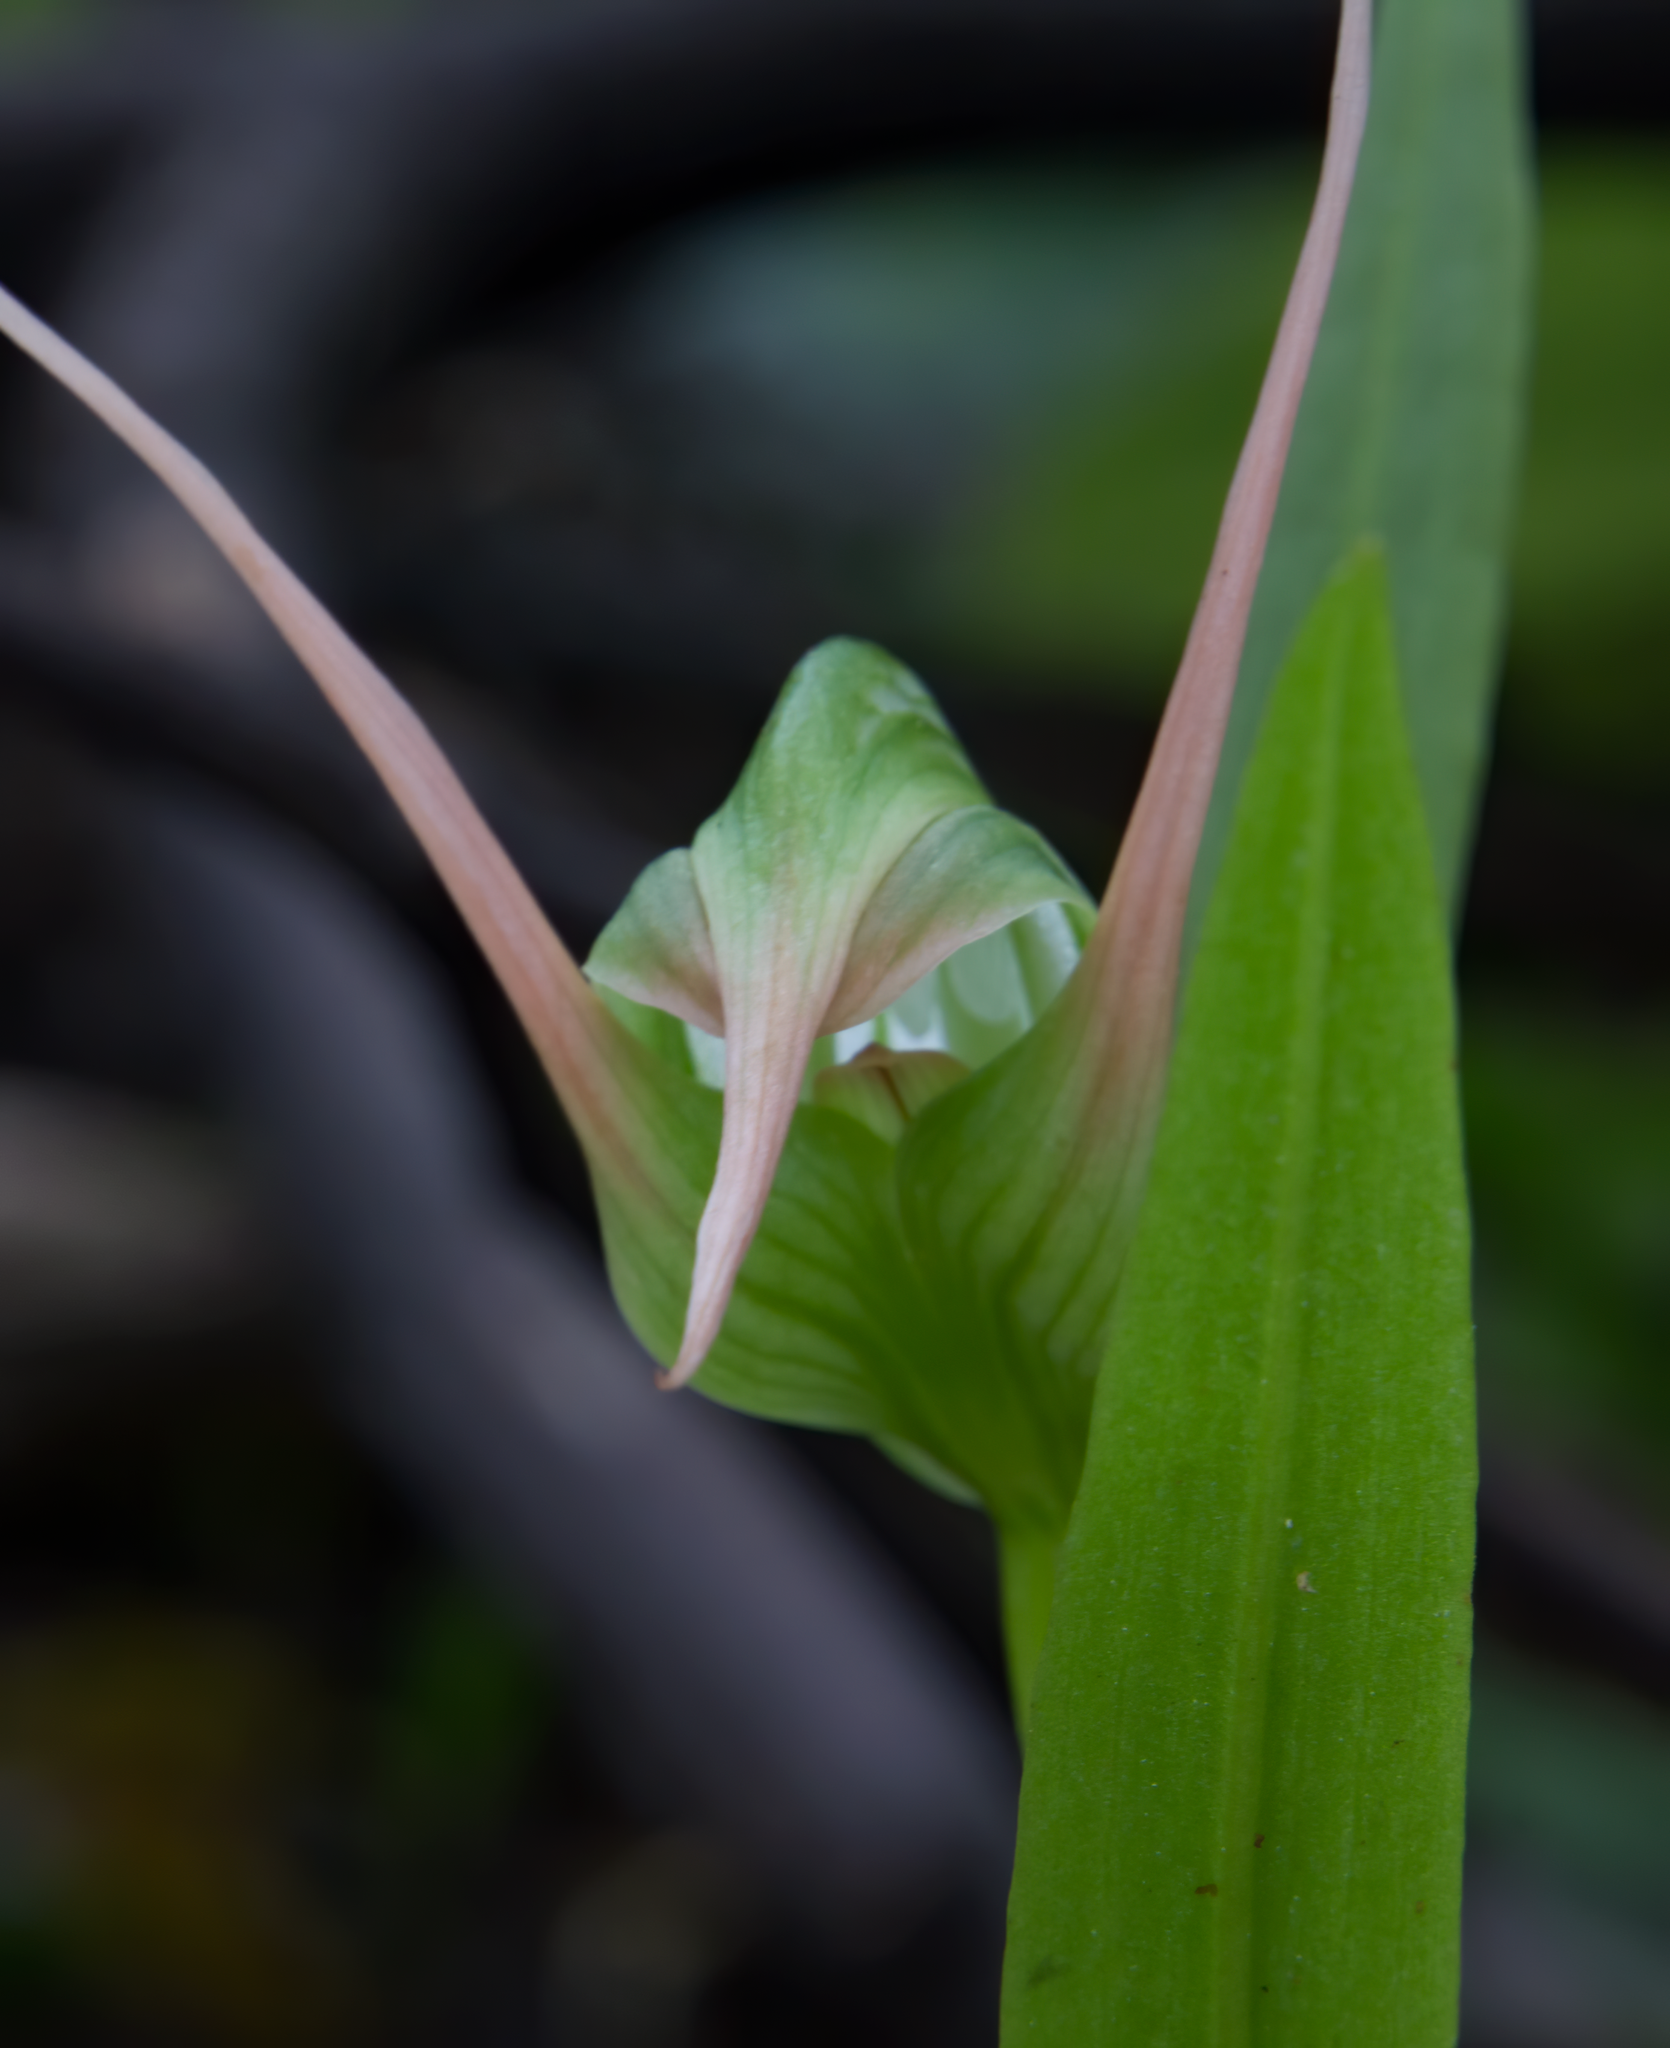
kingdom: Plantae
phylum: Tracheophyta
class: Liliopsida
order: Asparagales
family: Orchidaceae
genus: Pterostylis
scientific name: Pterostylis banksii
